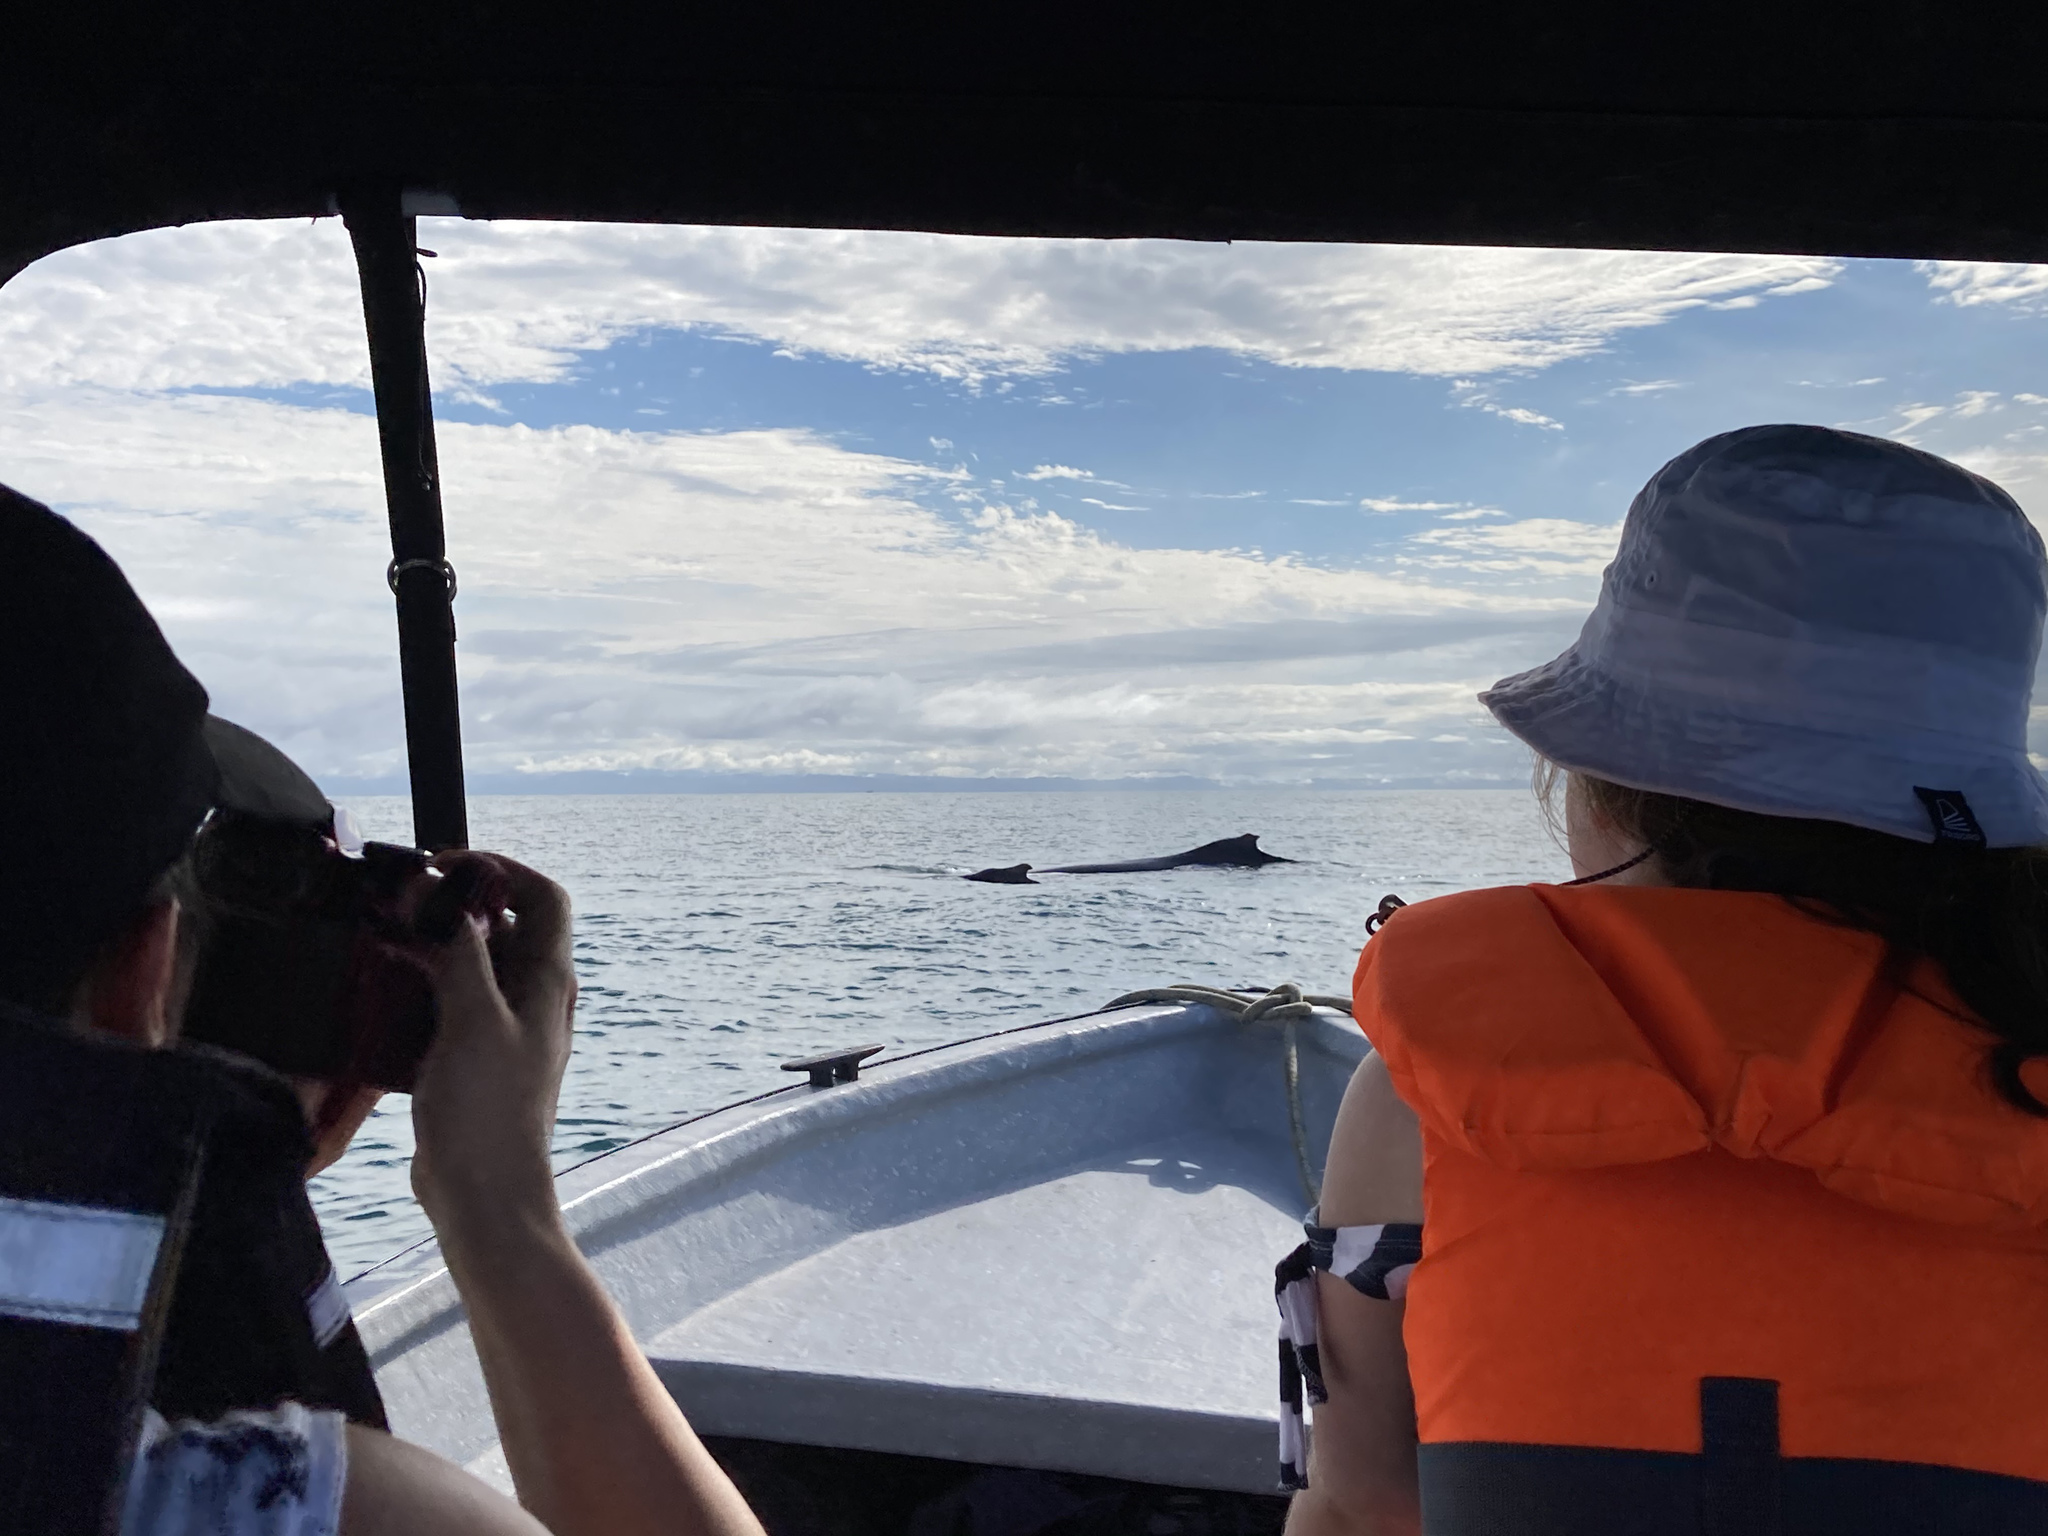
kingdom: Animalia
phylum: Chordata
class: Mammalia
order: Cetacea
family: Balaenopteridae
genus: Megaptera
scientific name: Megaptera novaeangliae
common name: Humpback whale
